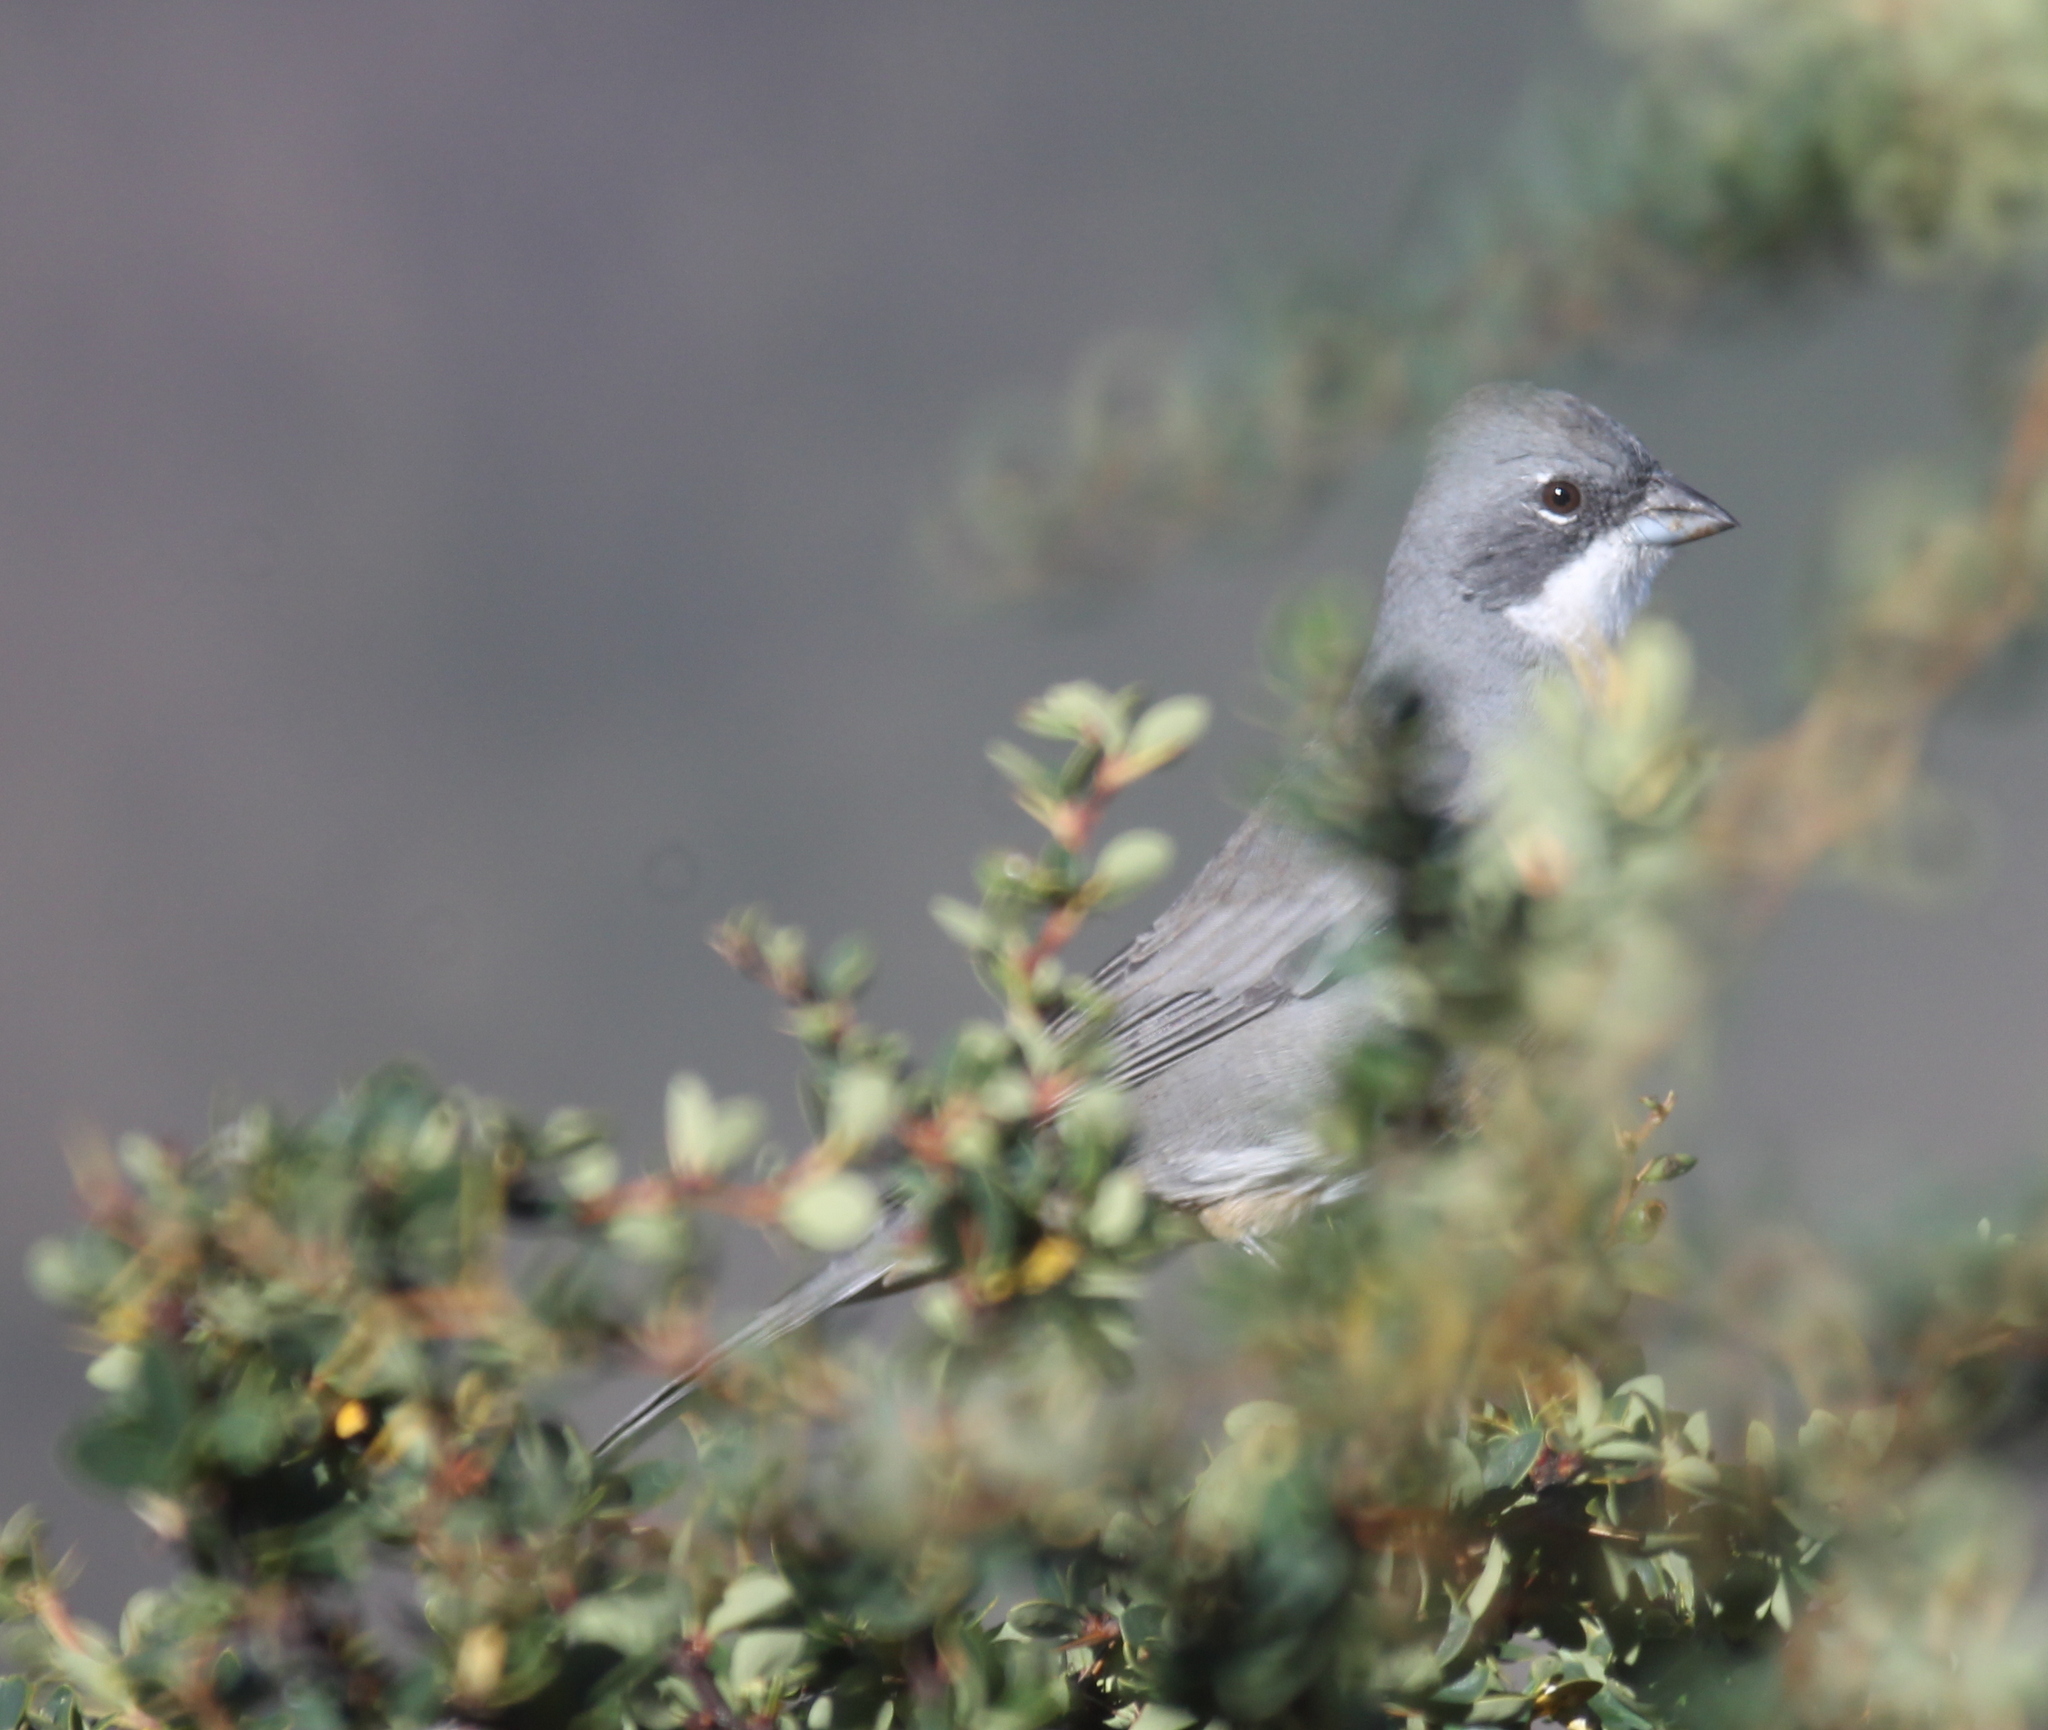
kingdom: Animalia
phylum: Chordata
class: Aves
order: Passeriformes
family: Thraupidae
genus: Diuca
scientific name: Diuca diuca
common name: Common diuca finch
